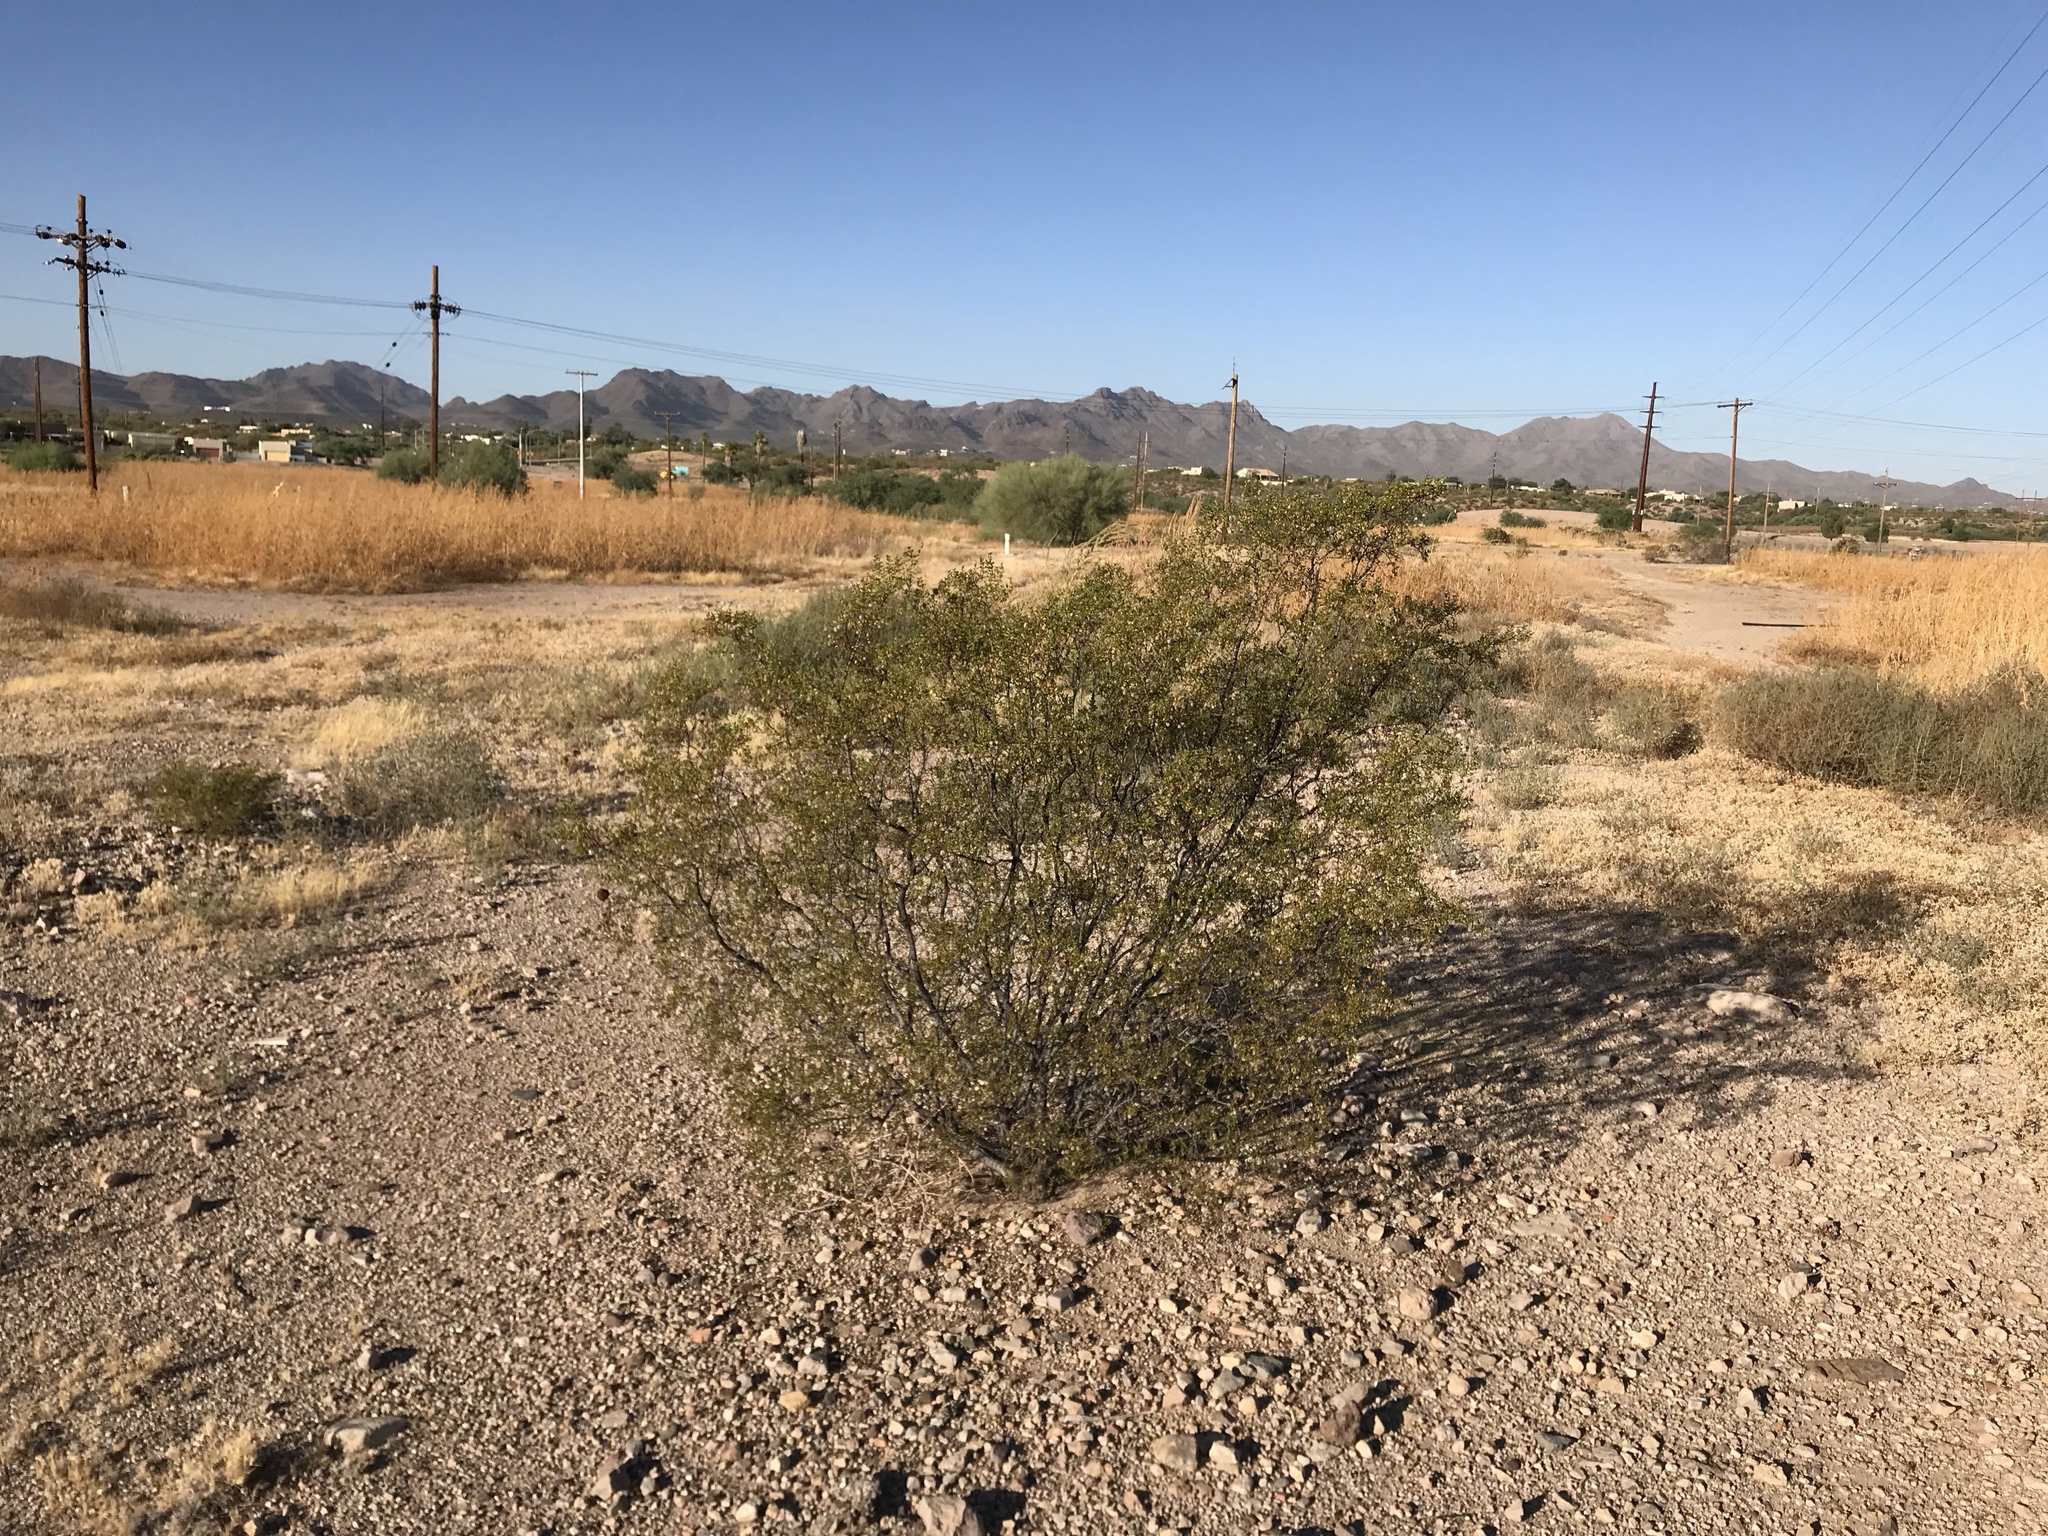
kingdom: Plantae
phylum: Tracheophyta
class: Magnoliopsida
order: Zygophyllales
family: Zygophyllaceae
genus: Larrea
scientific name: Larrea tridentata
